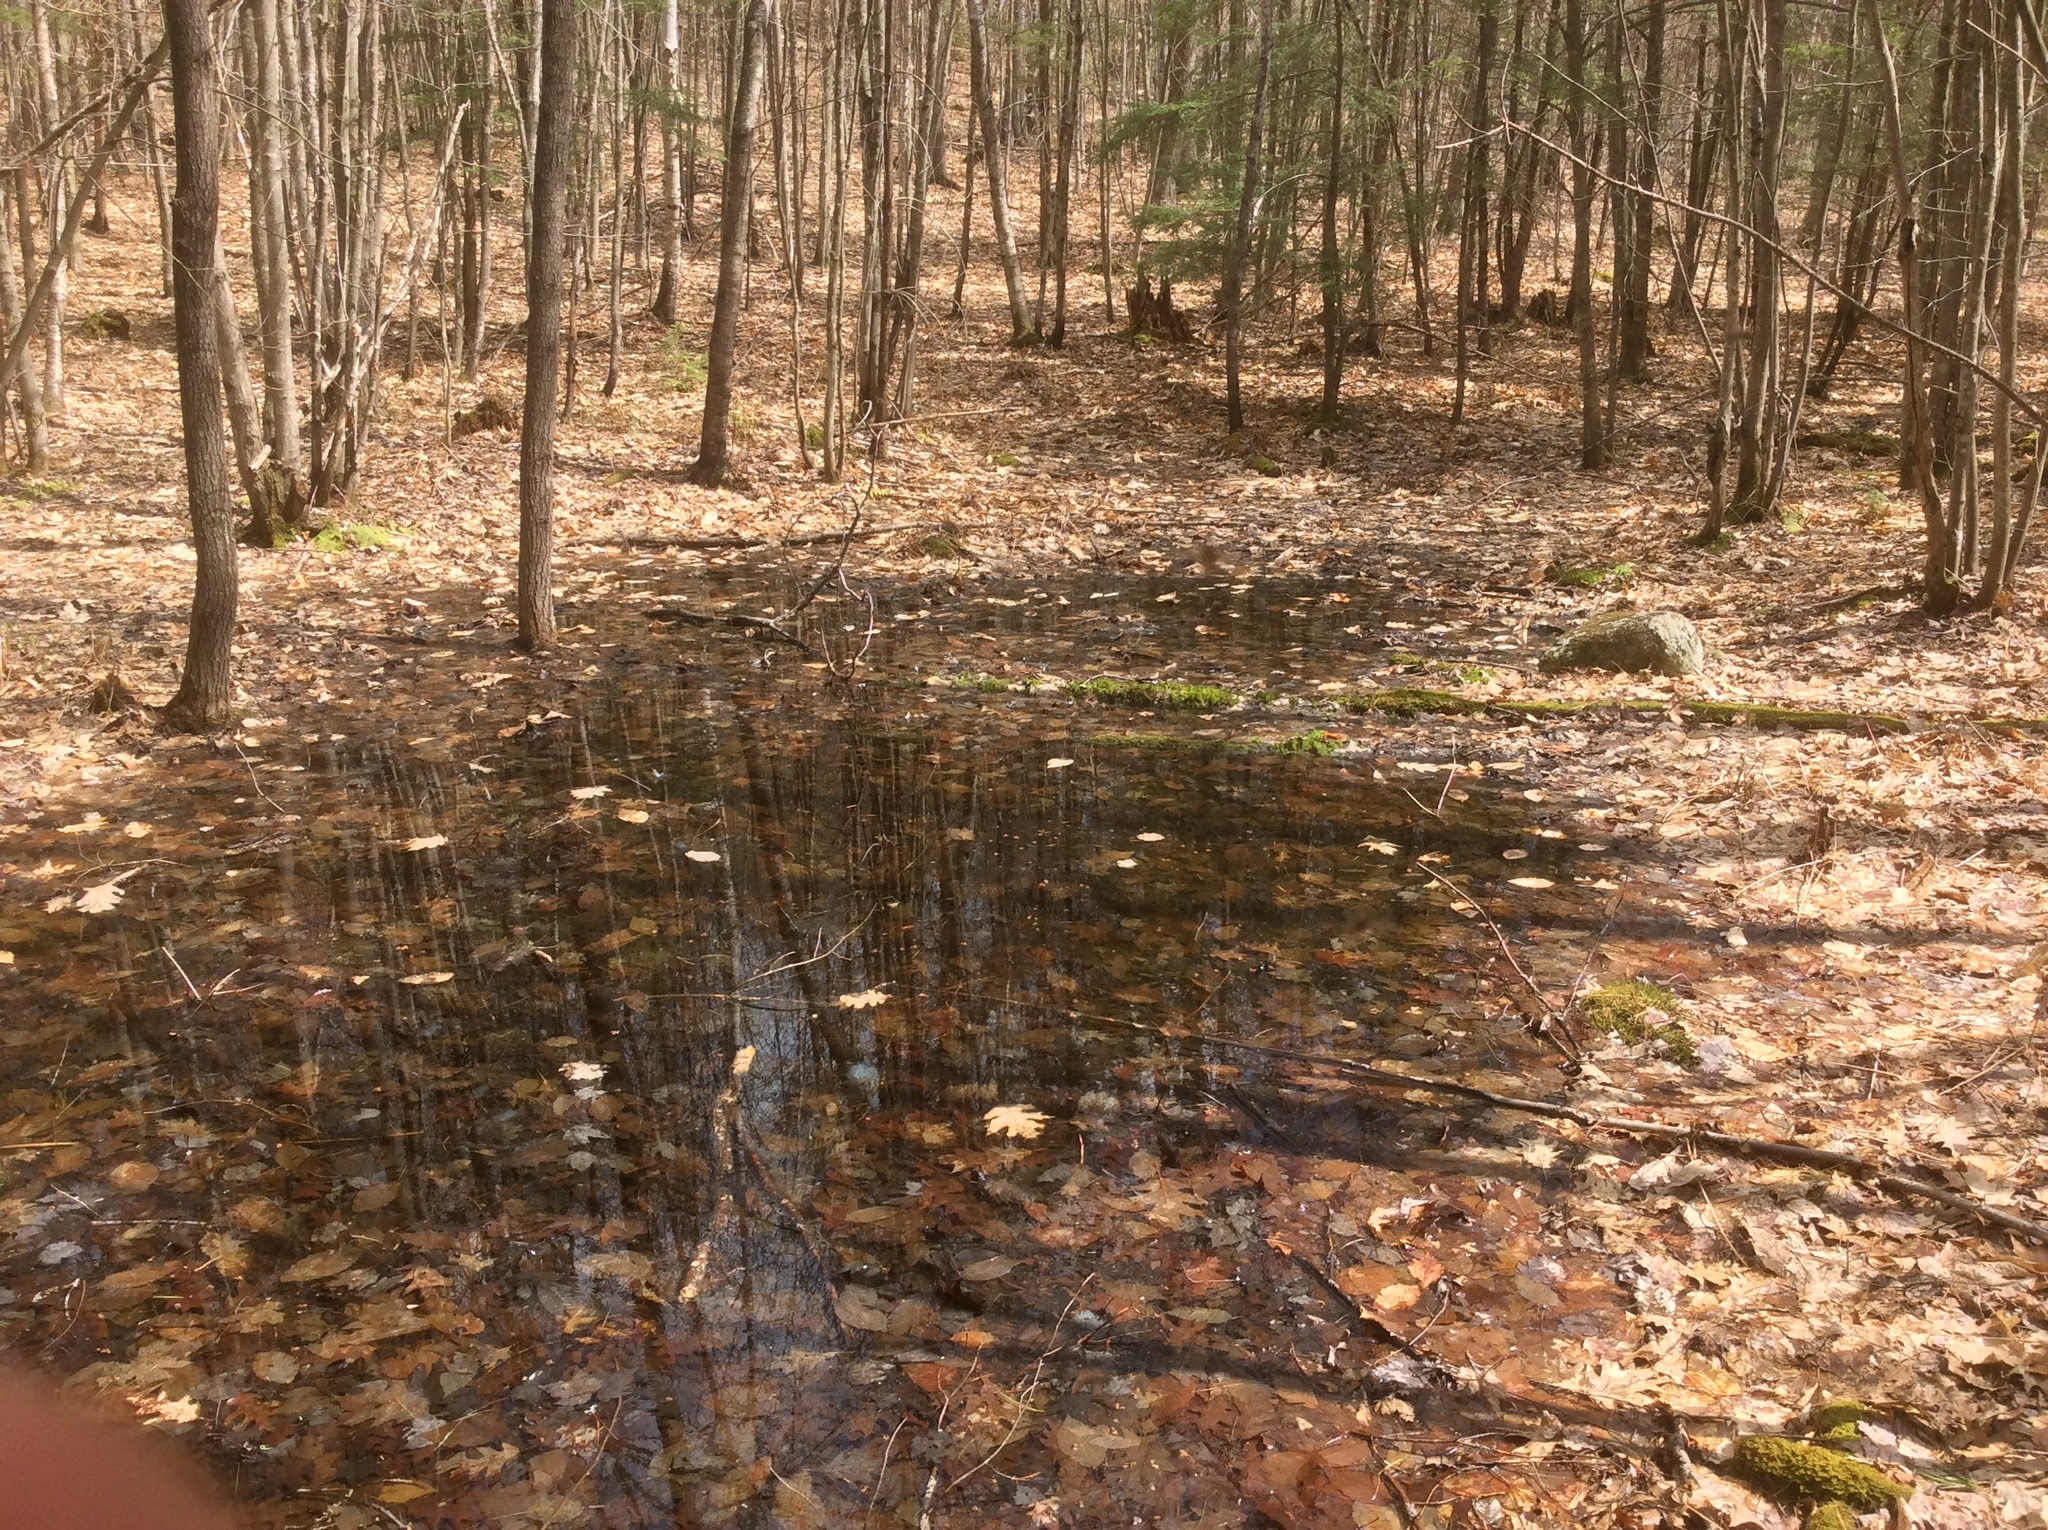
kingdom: Animalia
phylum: Chordata
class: Amphibia
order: Caudata
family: Ambystomatidae
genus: Ambystoma
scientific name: Ambystoma maculatum
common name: Spotted salamander
